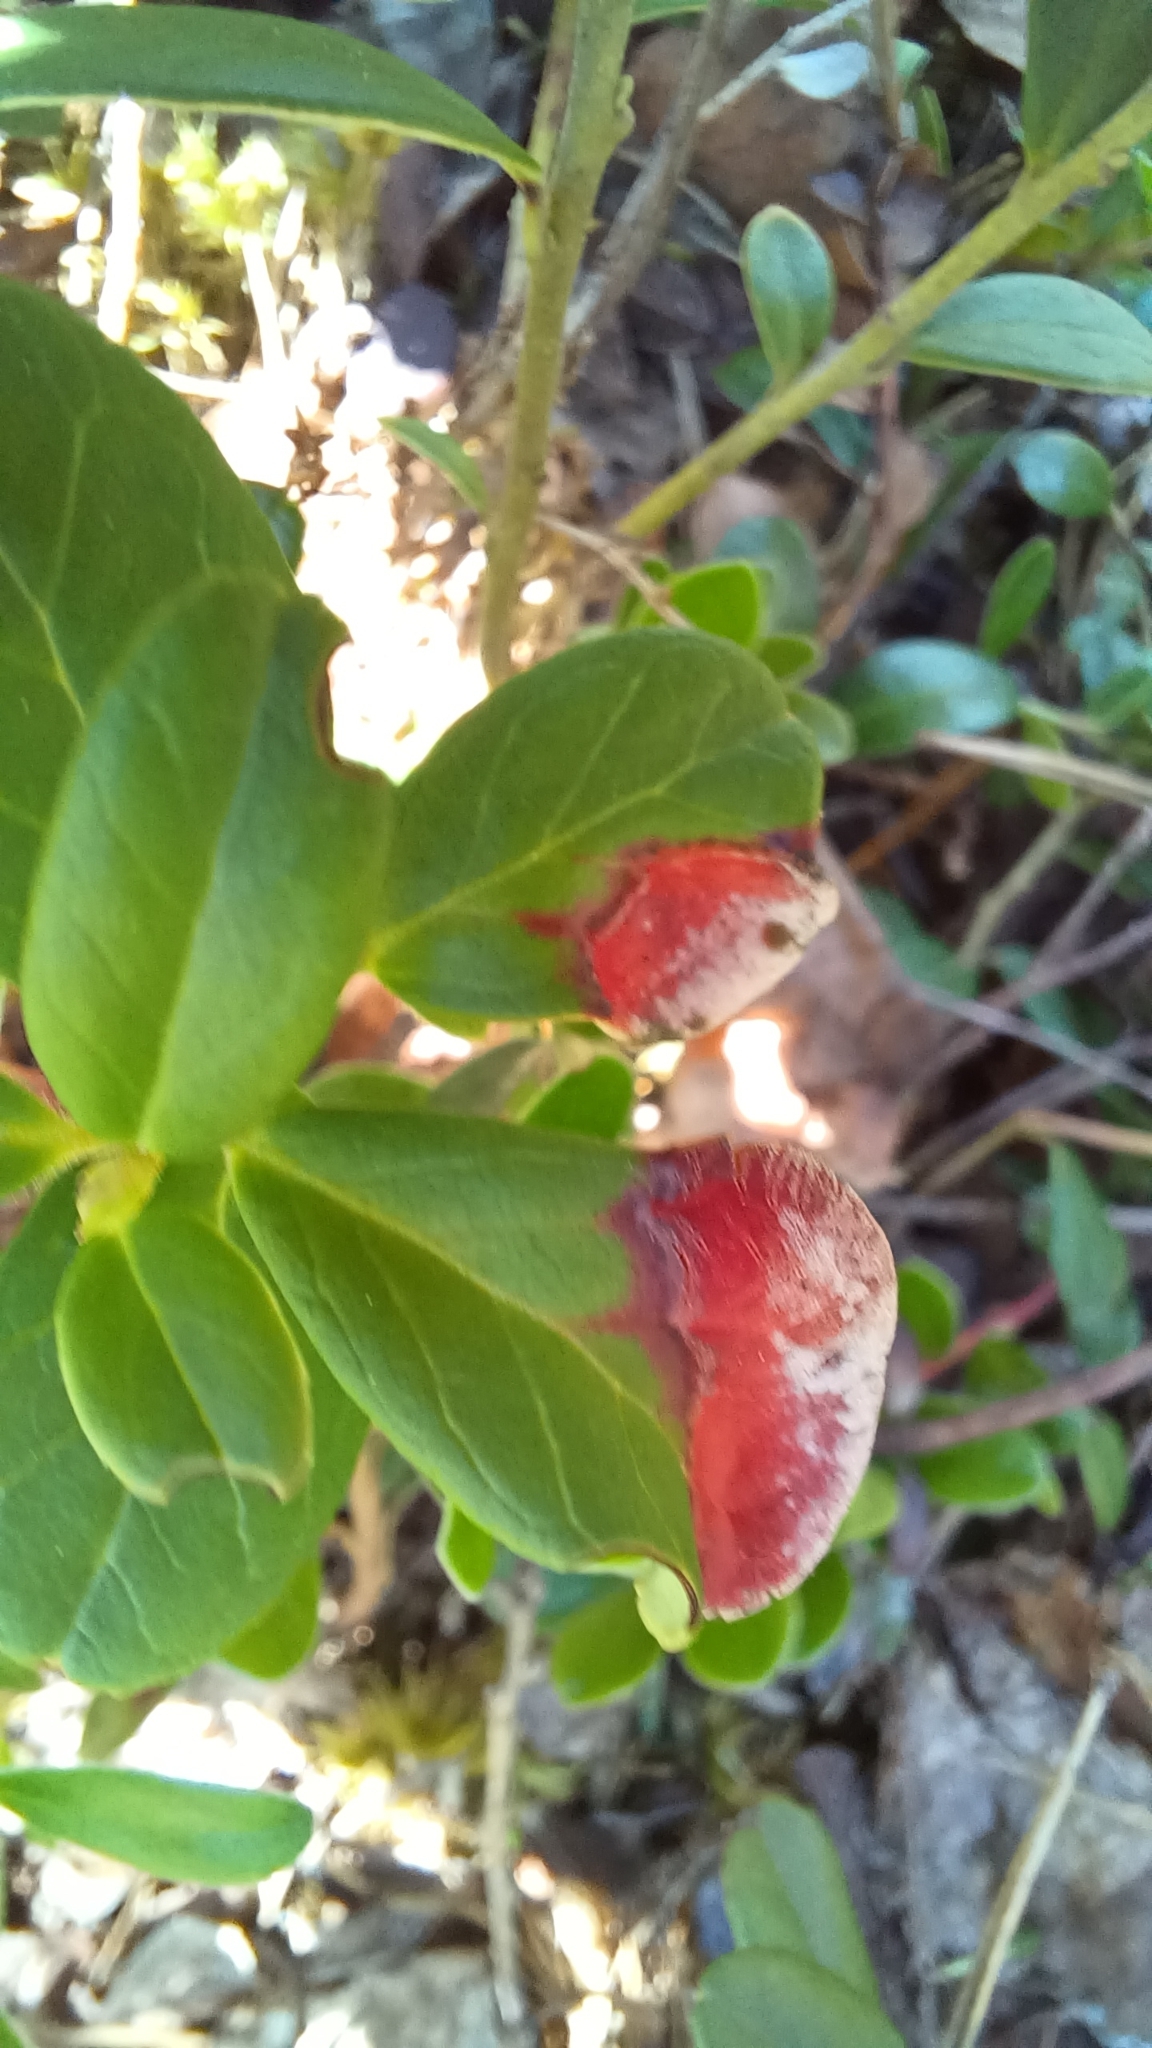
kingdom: Fungi
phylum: Basidiomycota
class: Exobasidiomycetes
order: Exobasidiales
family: Exobasidiaceae
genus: Exobasidium
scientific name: Exobasidium vaccinii
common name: Cowberry redleaf
